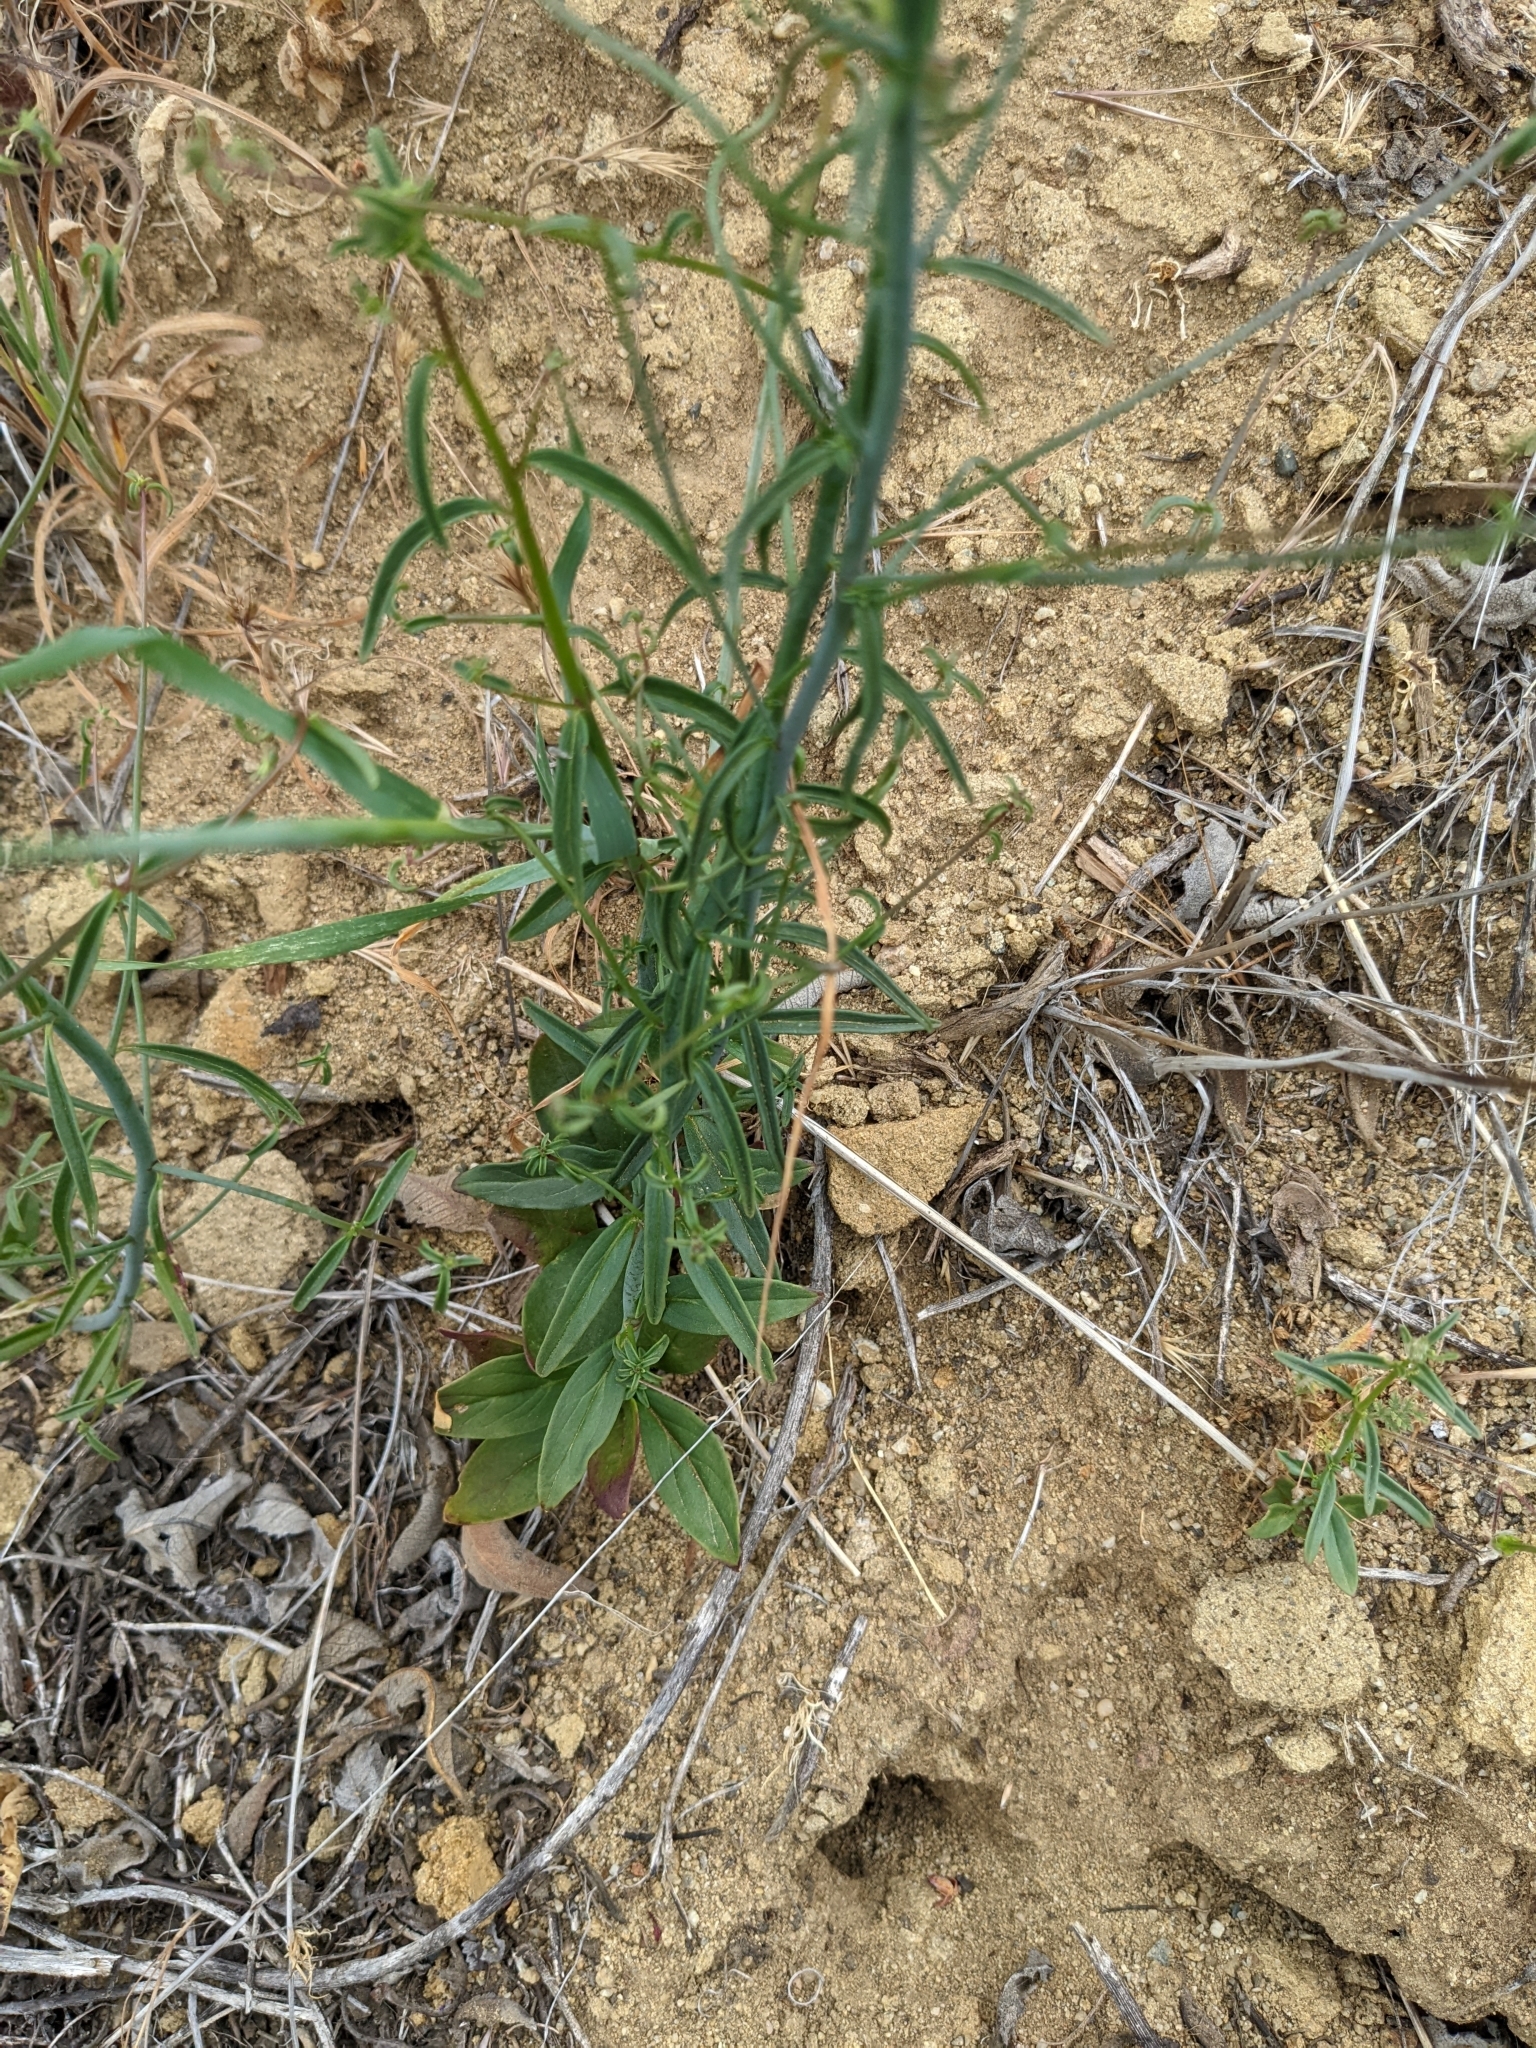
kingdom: Plantae
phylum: Tracheophyta
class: Magnoliopsida
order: Lamiales
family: Plantaginaceae
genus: Sairocarpus
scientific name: Sairocarpus coulterianus
